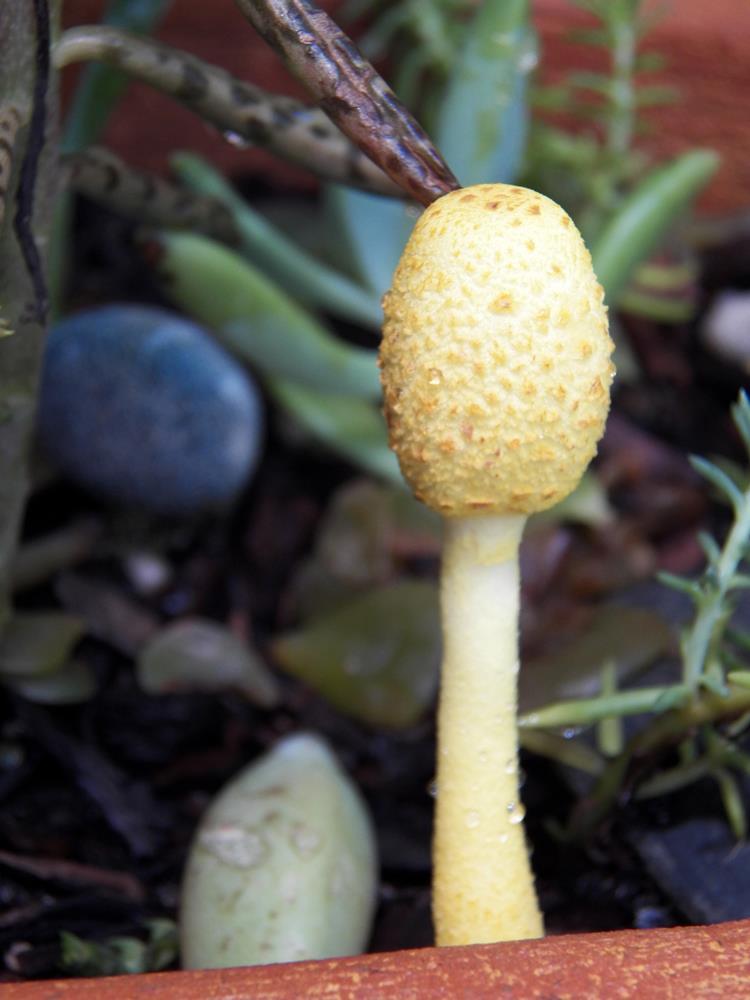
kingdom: Fungi
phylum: Basidiomycota
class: Agaricomycetes
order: Agaricales
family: Agaricaceae
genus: Leucocoprinus
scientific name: Leucocoprinus birnbaumii
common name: Plantpot dapperling
